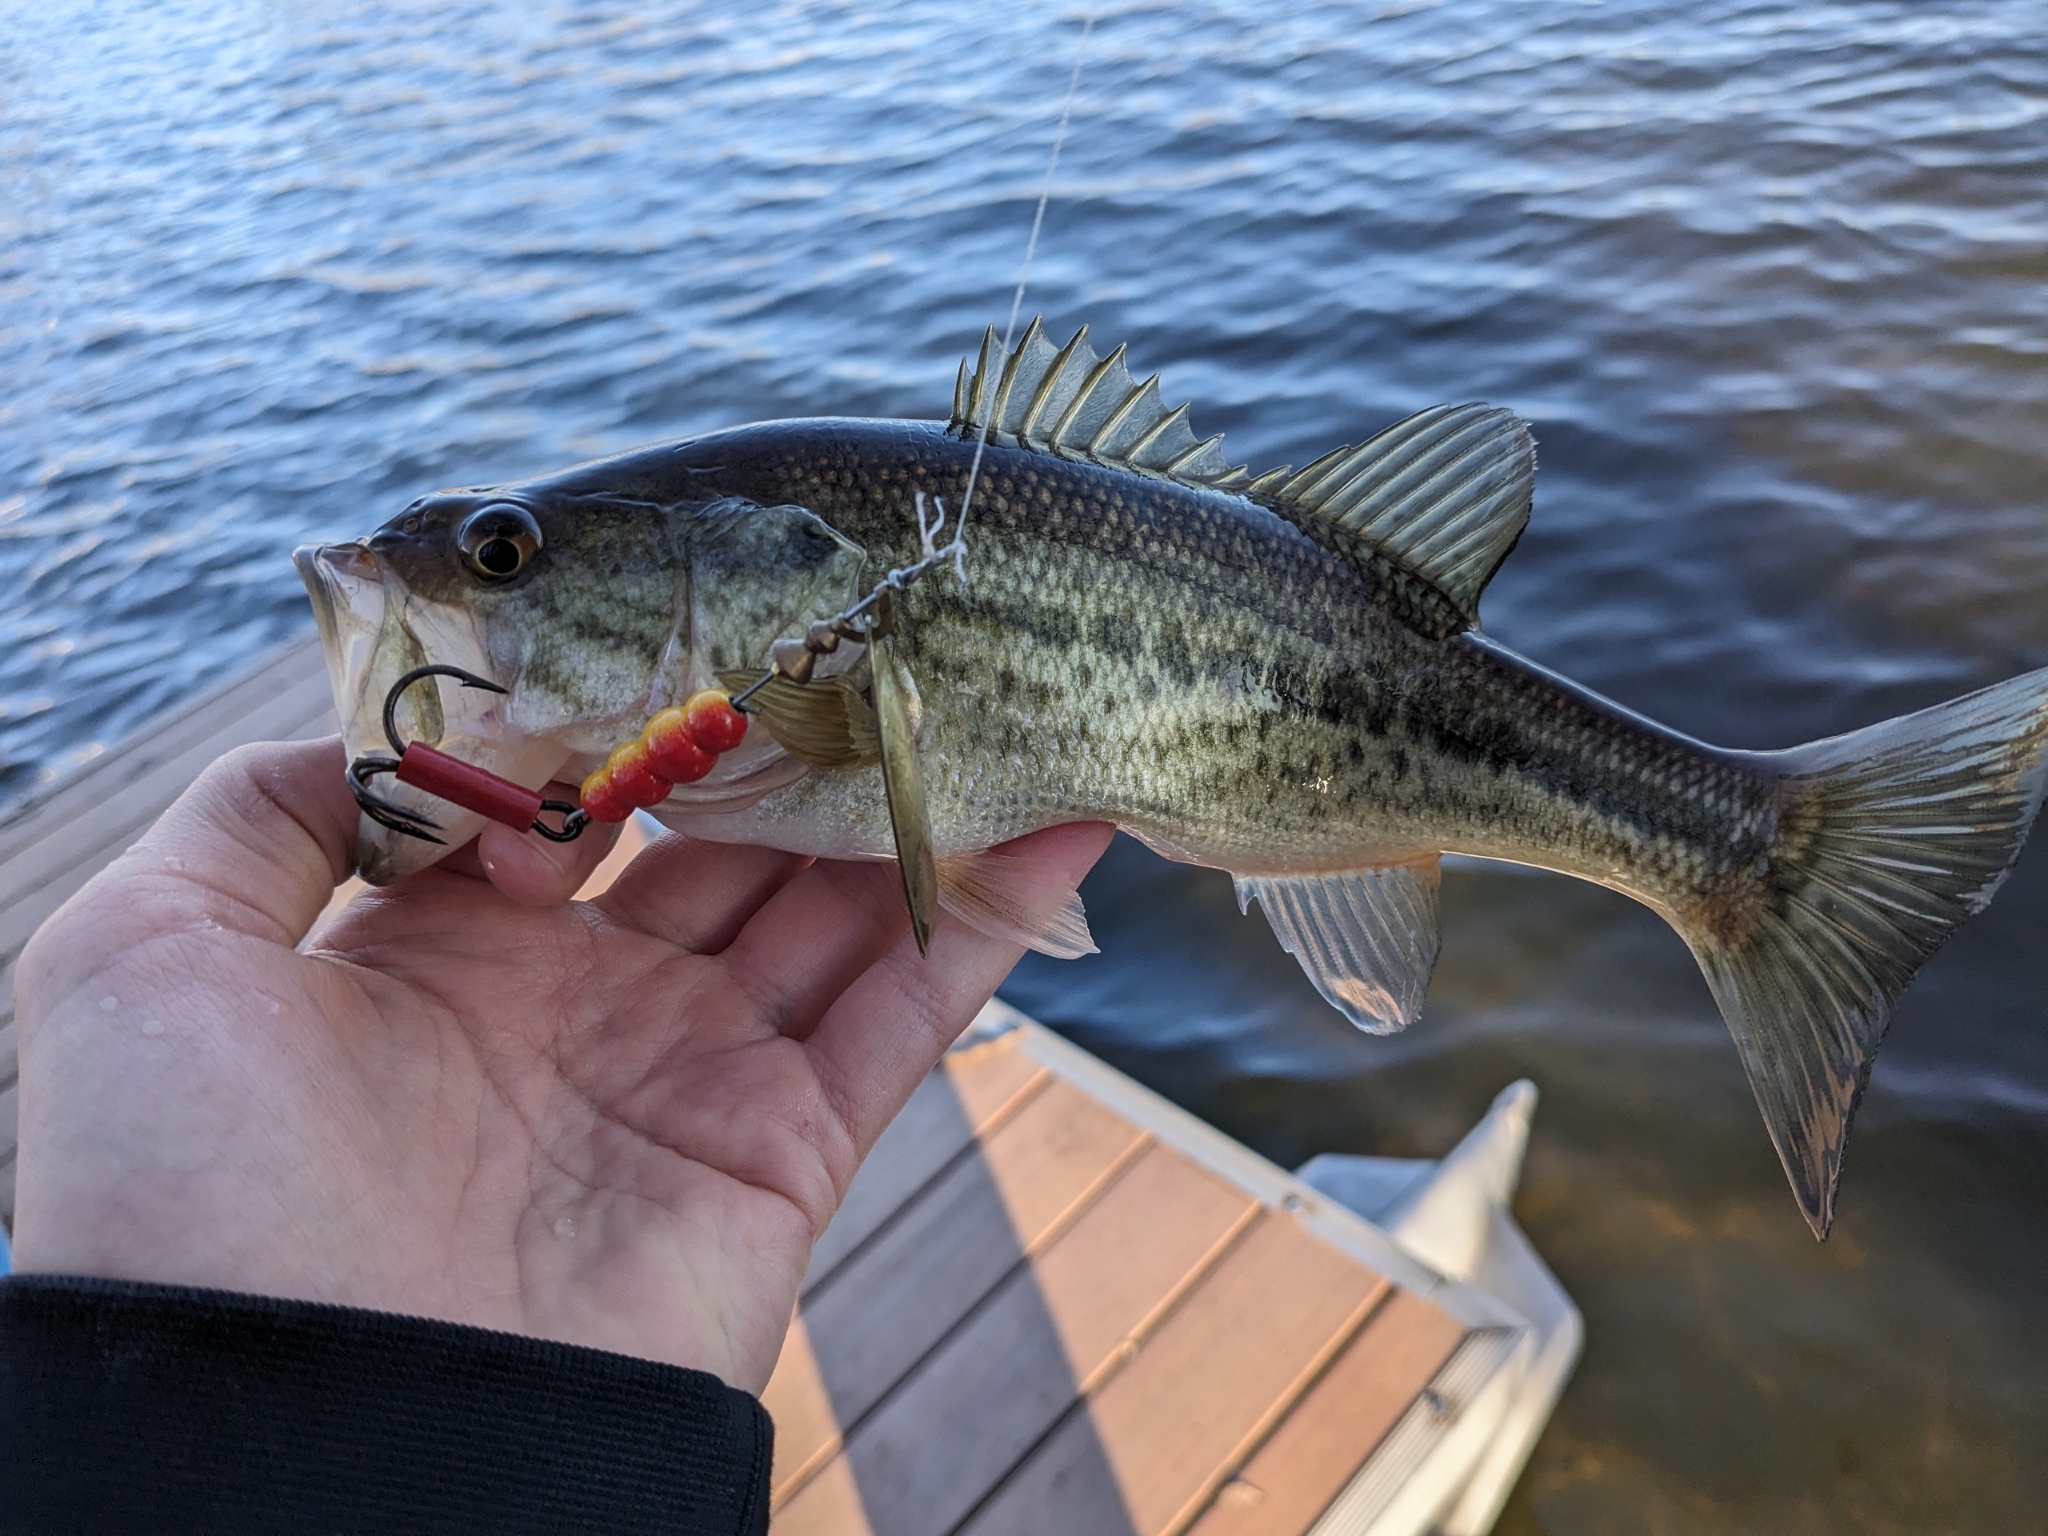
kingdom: Animalia
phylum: Chordata
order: Perciformes
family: Centrarchidae
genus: Micropterus
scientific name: Micropterus
